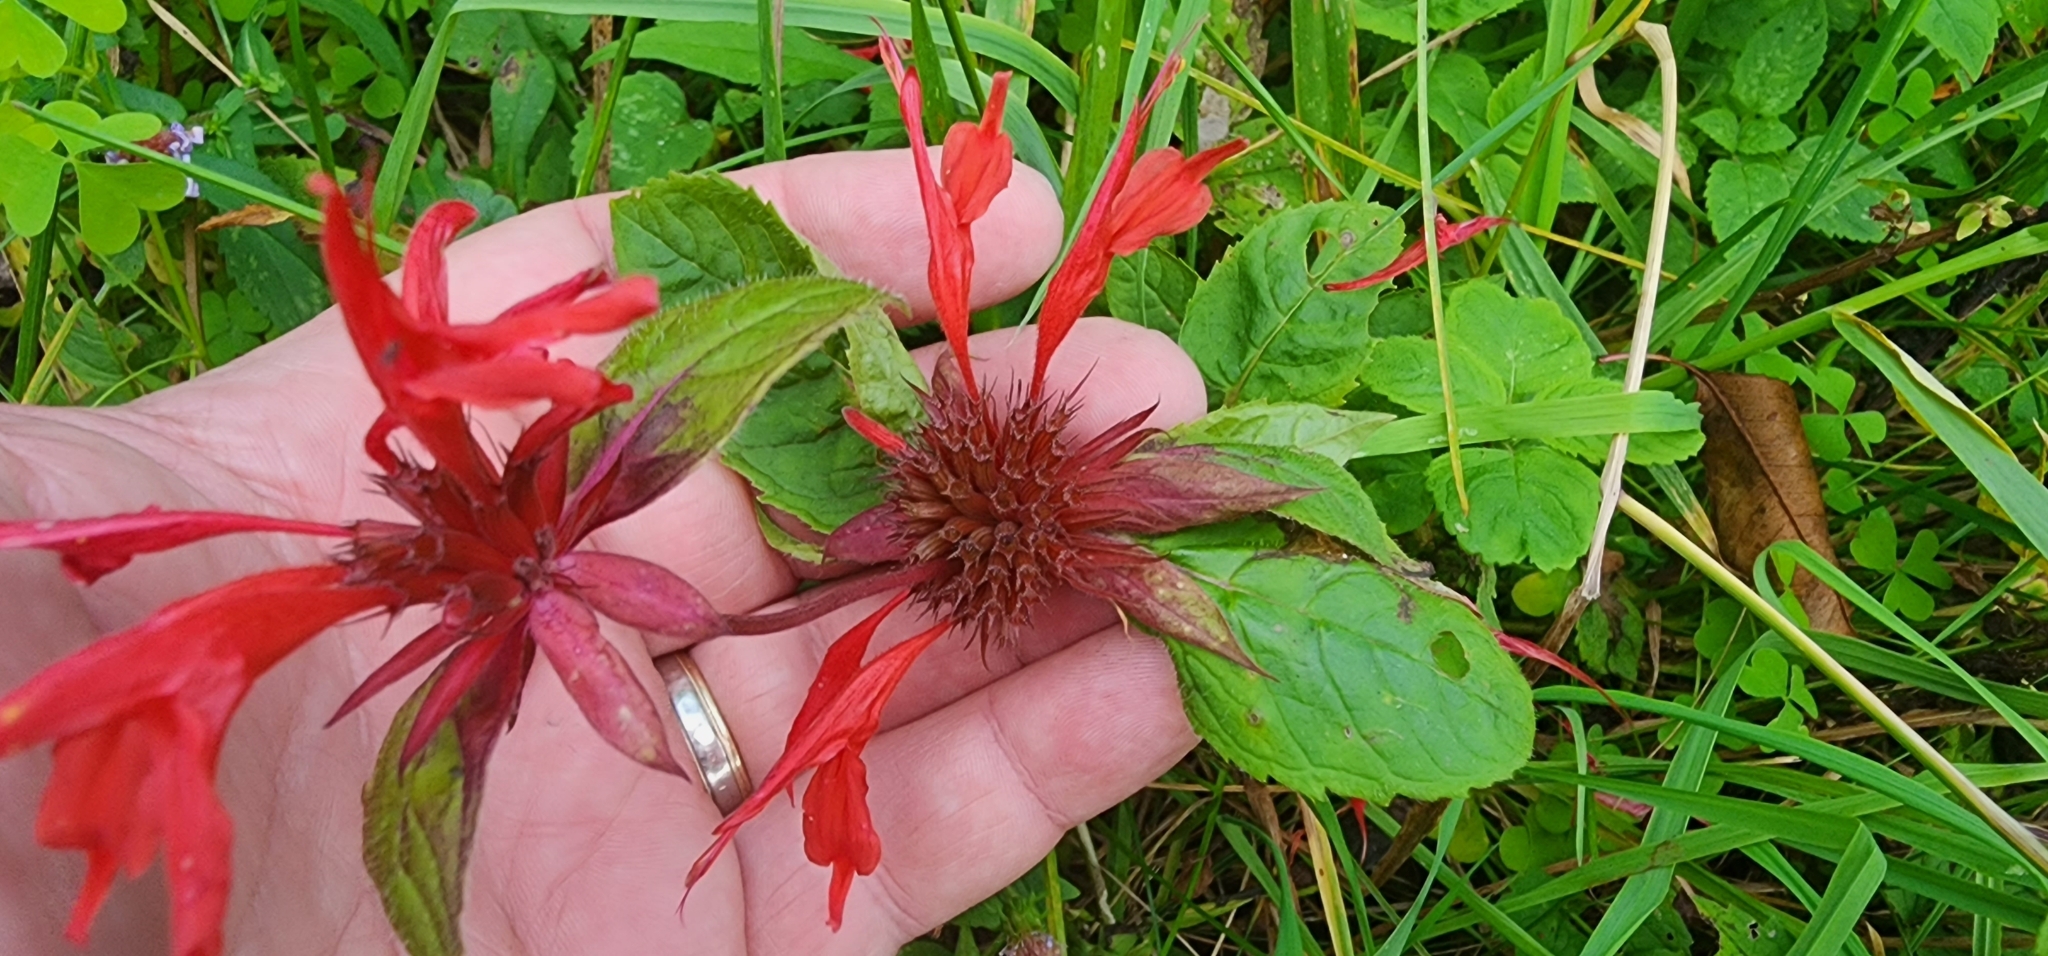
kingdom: Plantae
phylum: Tracheophyta
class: Magnoliopsida
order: Lamiales
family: Lamiaceae
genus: Monarda
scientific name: Monarda didyma
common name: Beebalm
